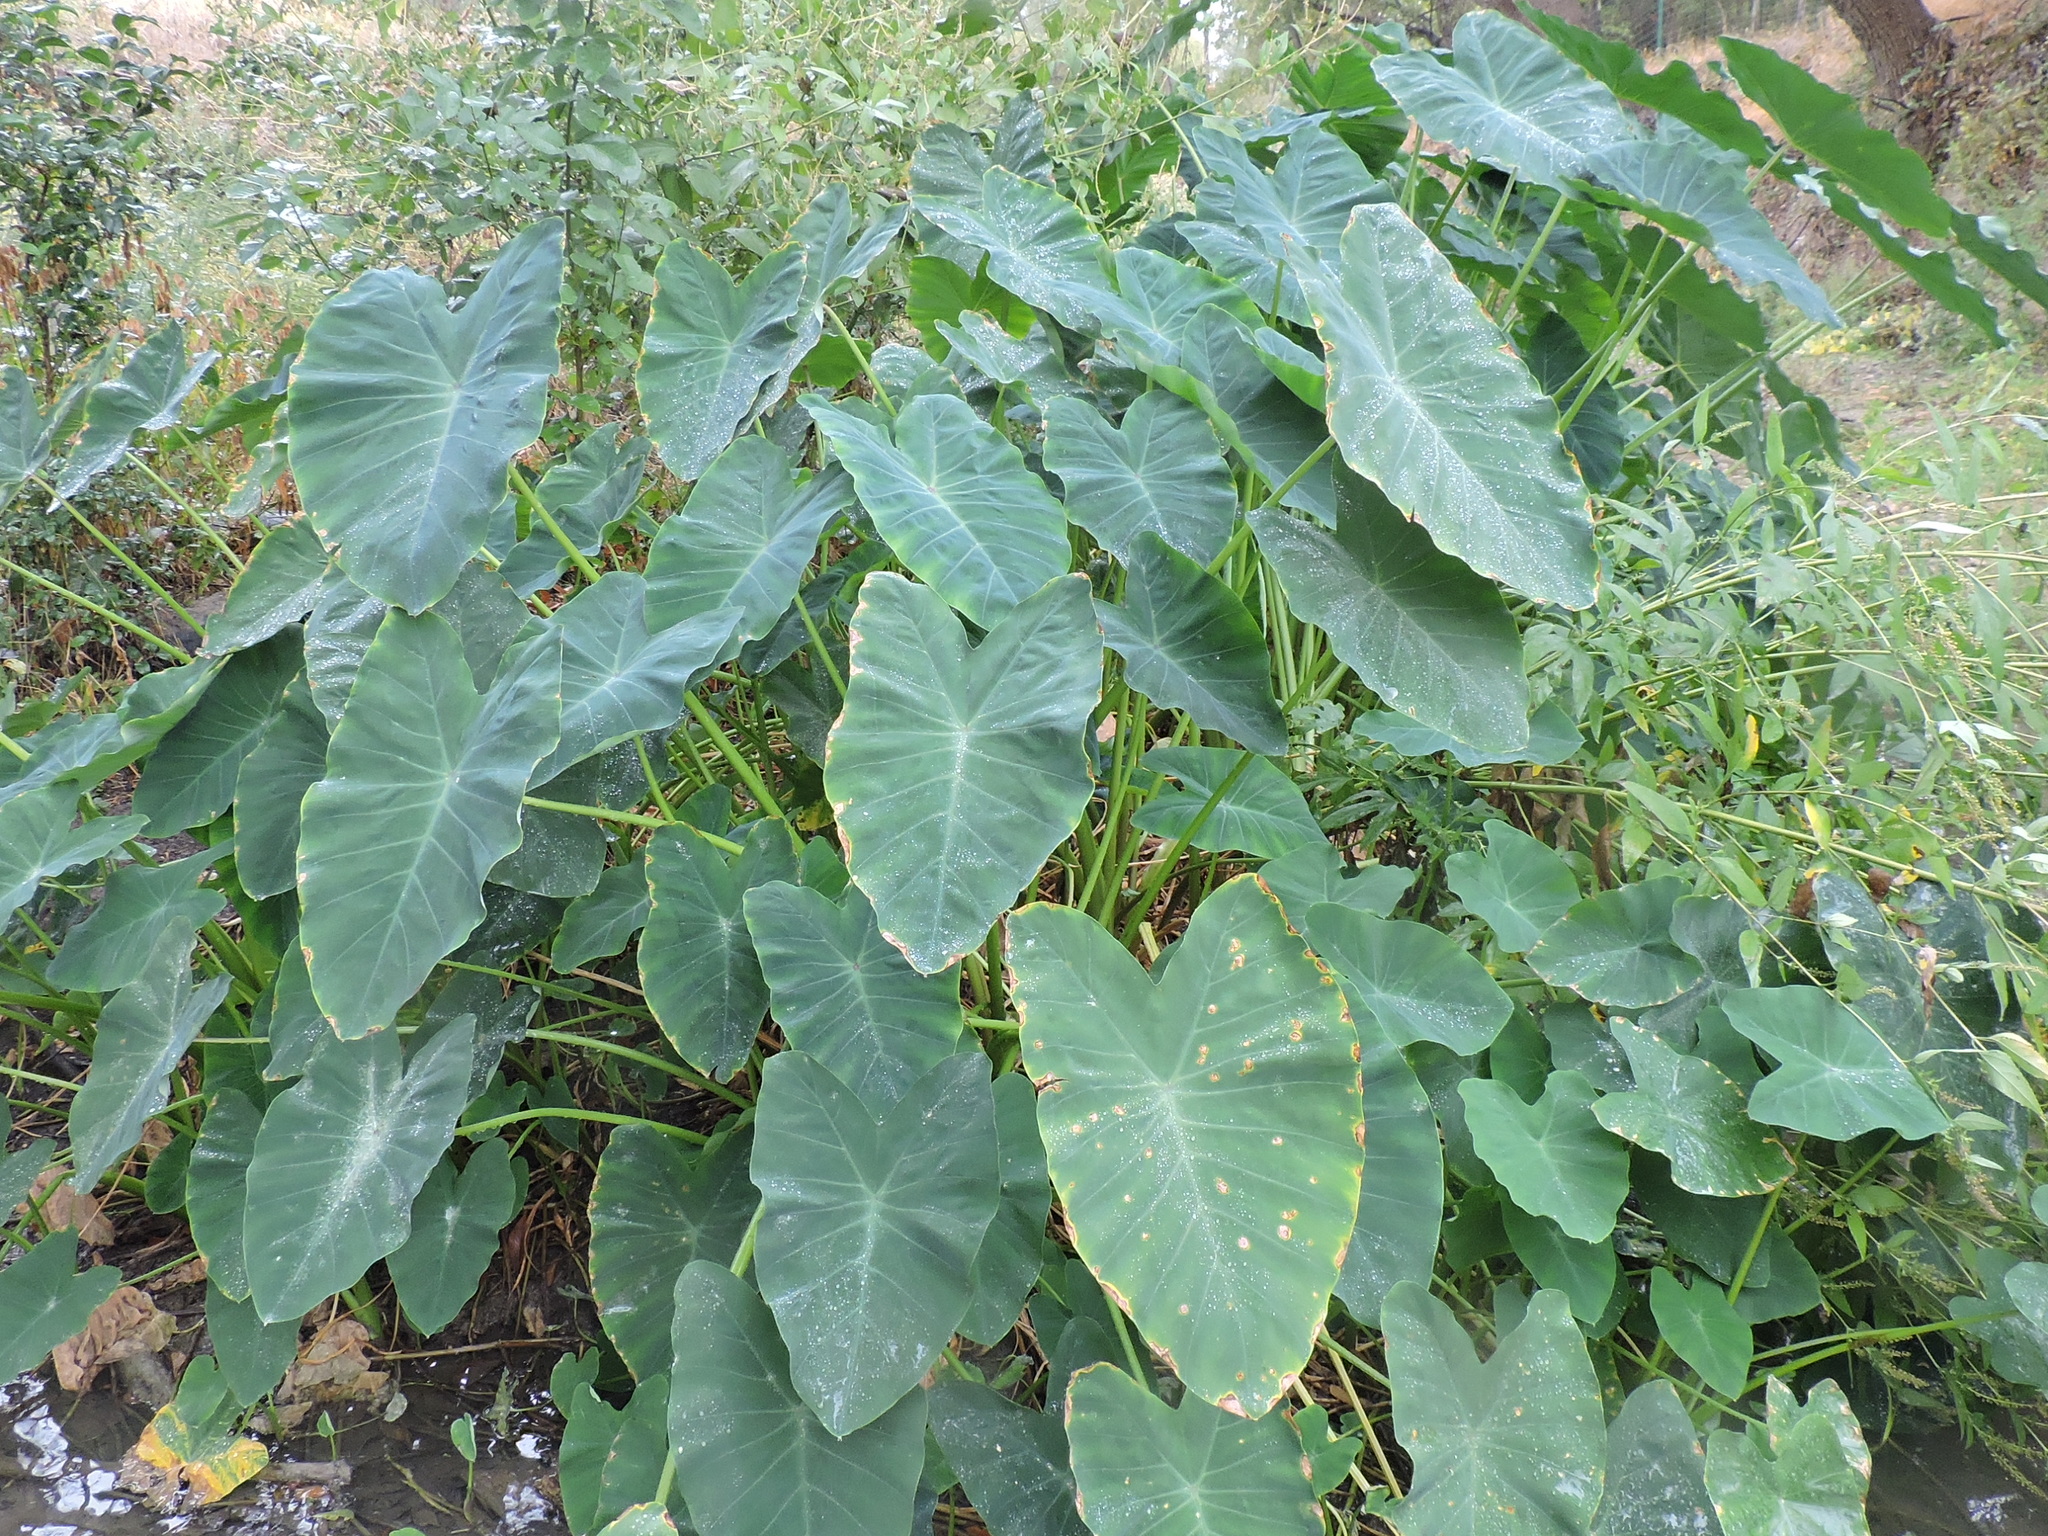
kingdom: Plantae
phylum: Tracheophyta
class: Liliopsida
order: Alismatales
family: Araceae
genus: Colocasia
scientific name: Colocasia esculenta
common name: Taro
